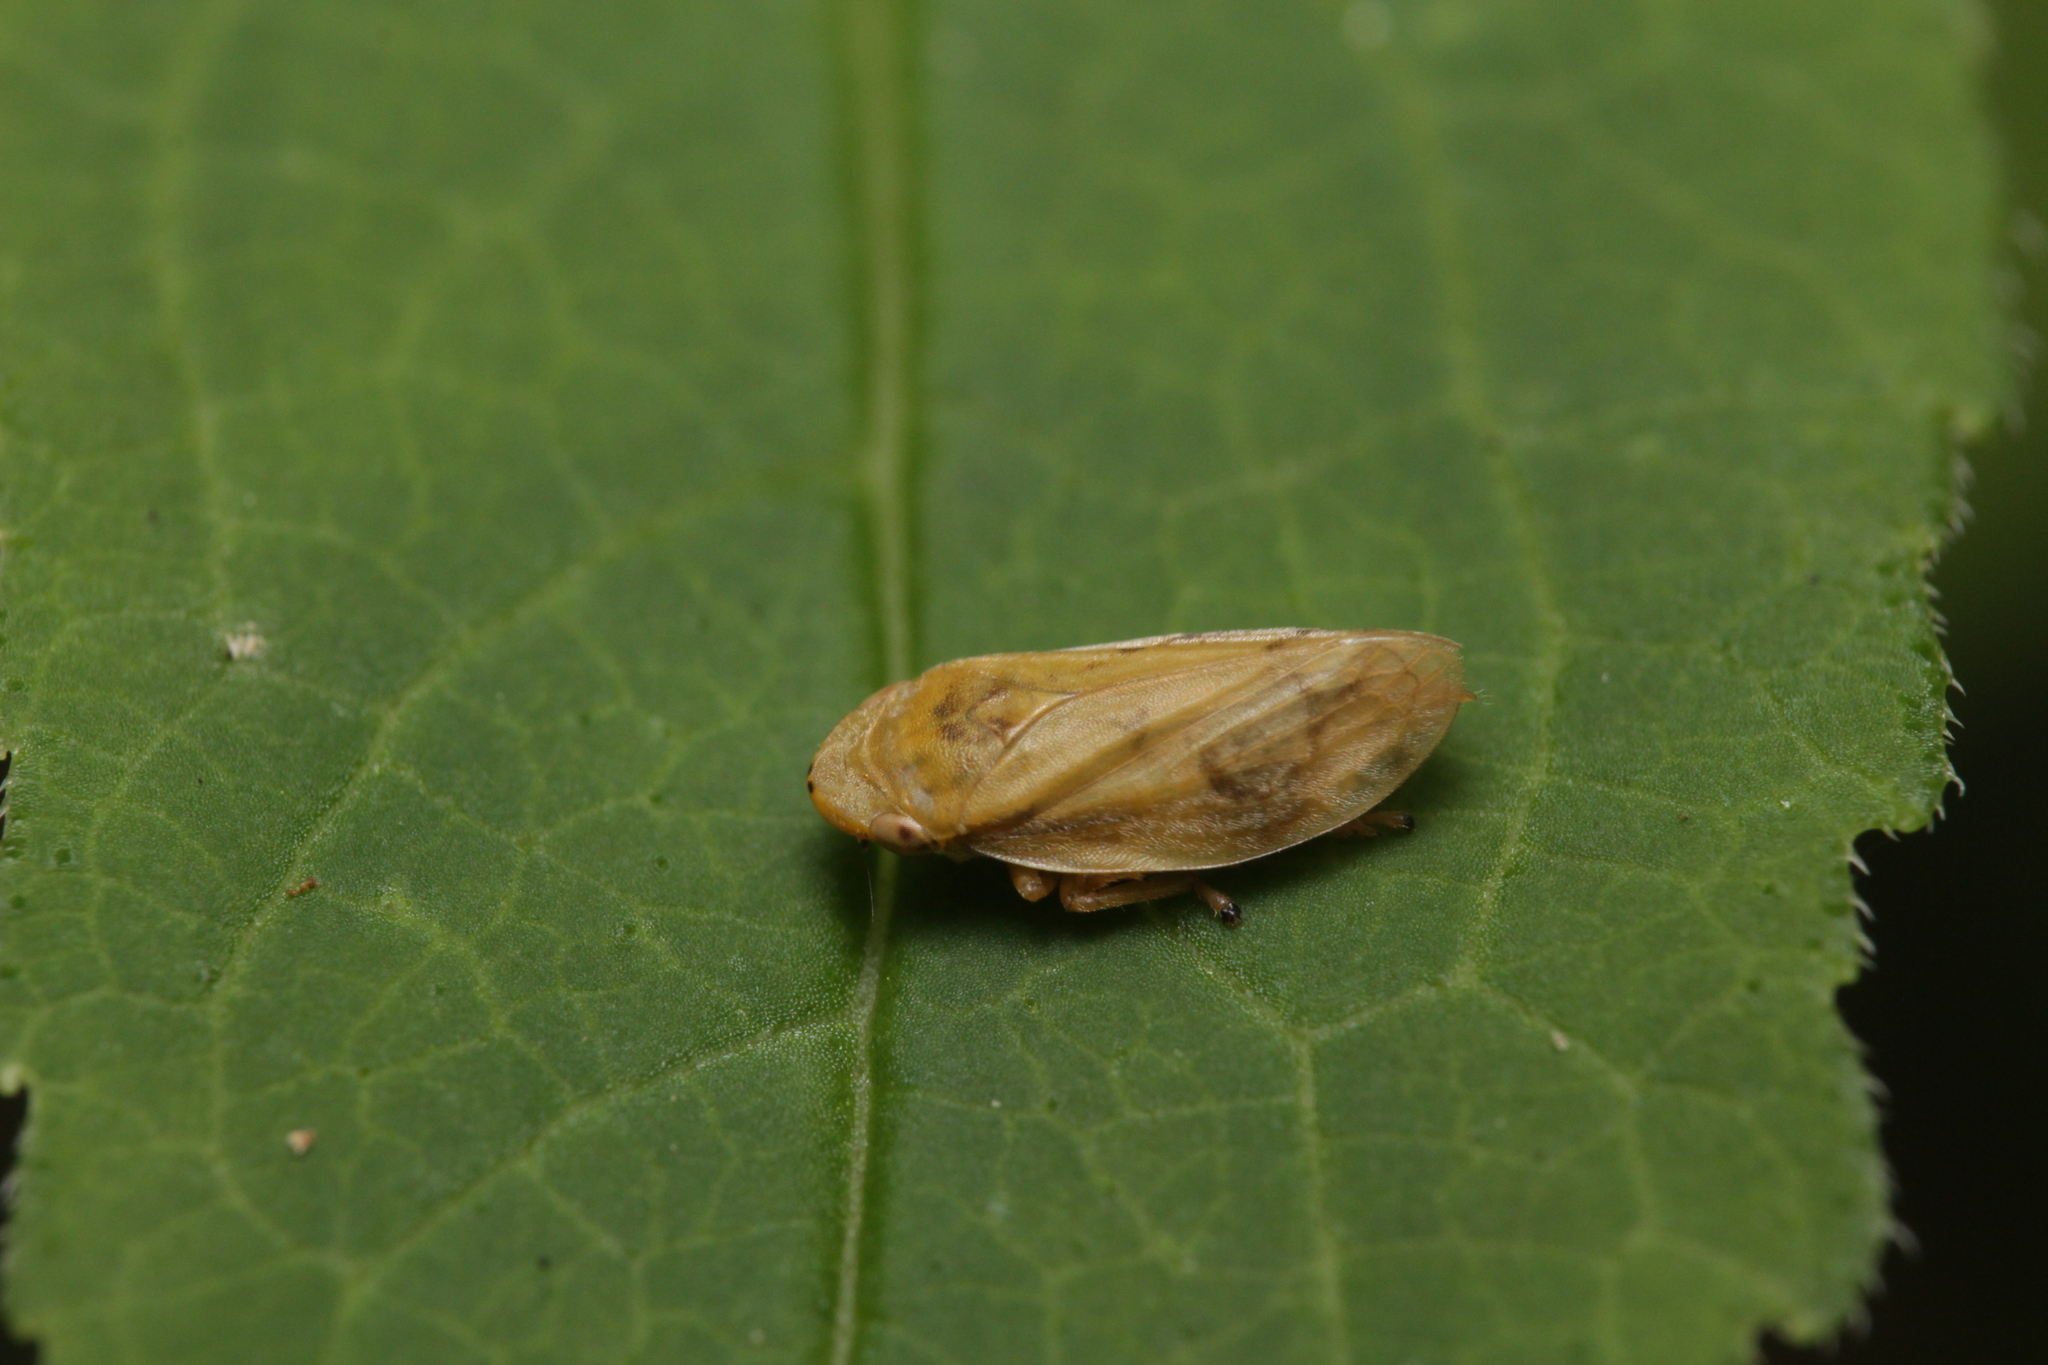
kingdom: Animalia
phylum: Arthropoda
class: Insecta
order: Hemiptera
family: Aphrophoridae
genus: Philaenus
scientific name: Philaenus spumarius
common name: Meadow spittlebug
